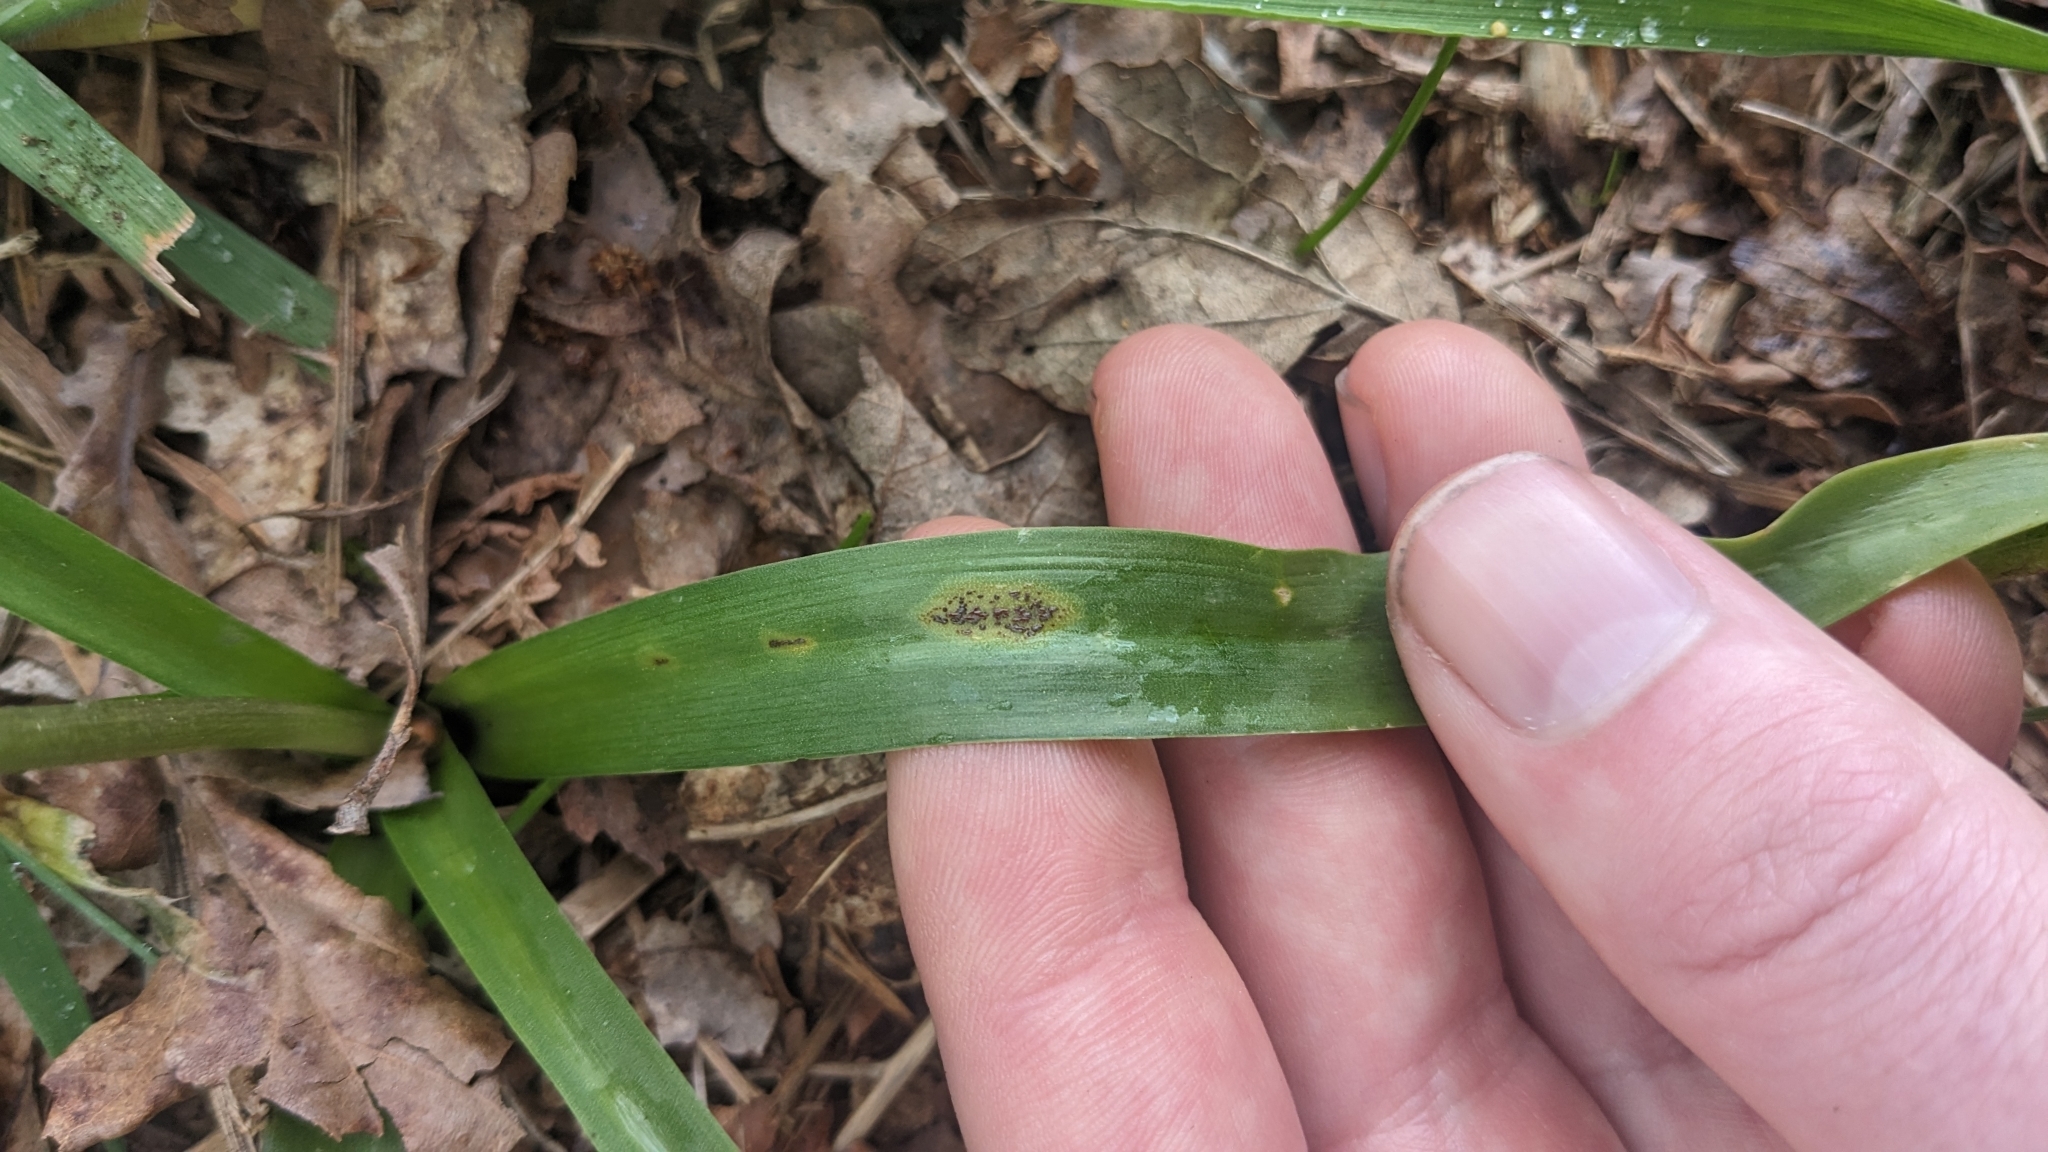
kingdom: Fungi
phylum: Basidiomycota
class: Pucciniomycetes
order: Pucciniales
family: Pucciniaceae
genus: Uromyces
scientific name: Uromyces hyacinthi
